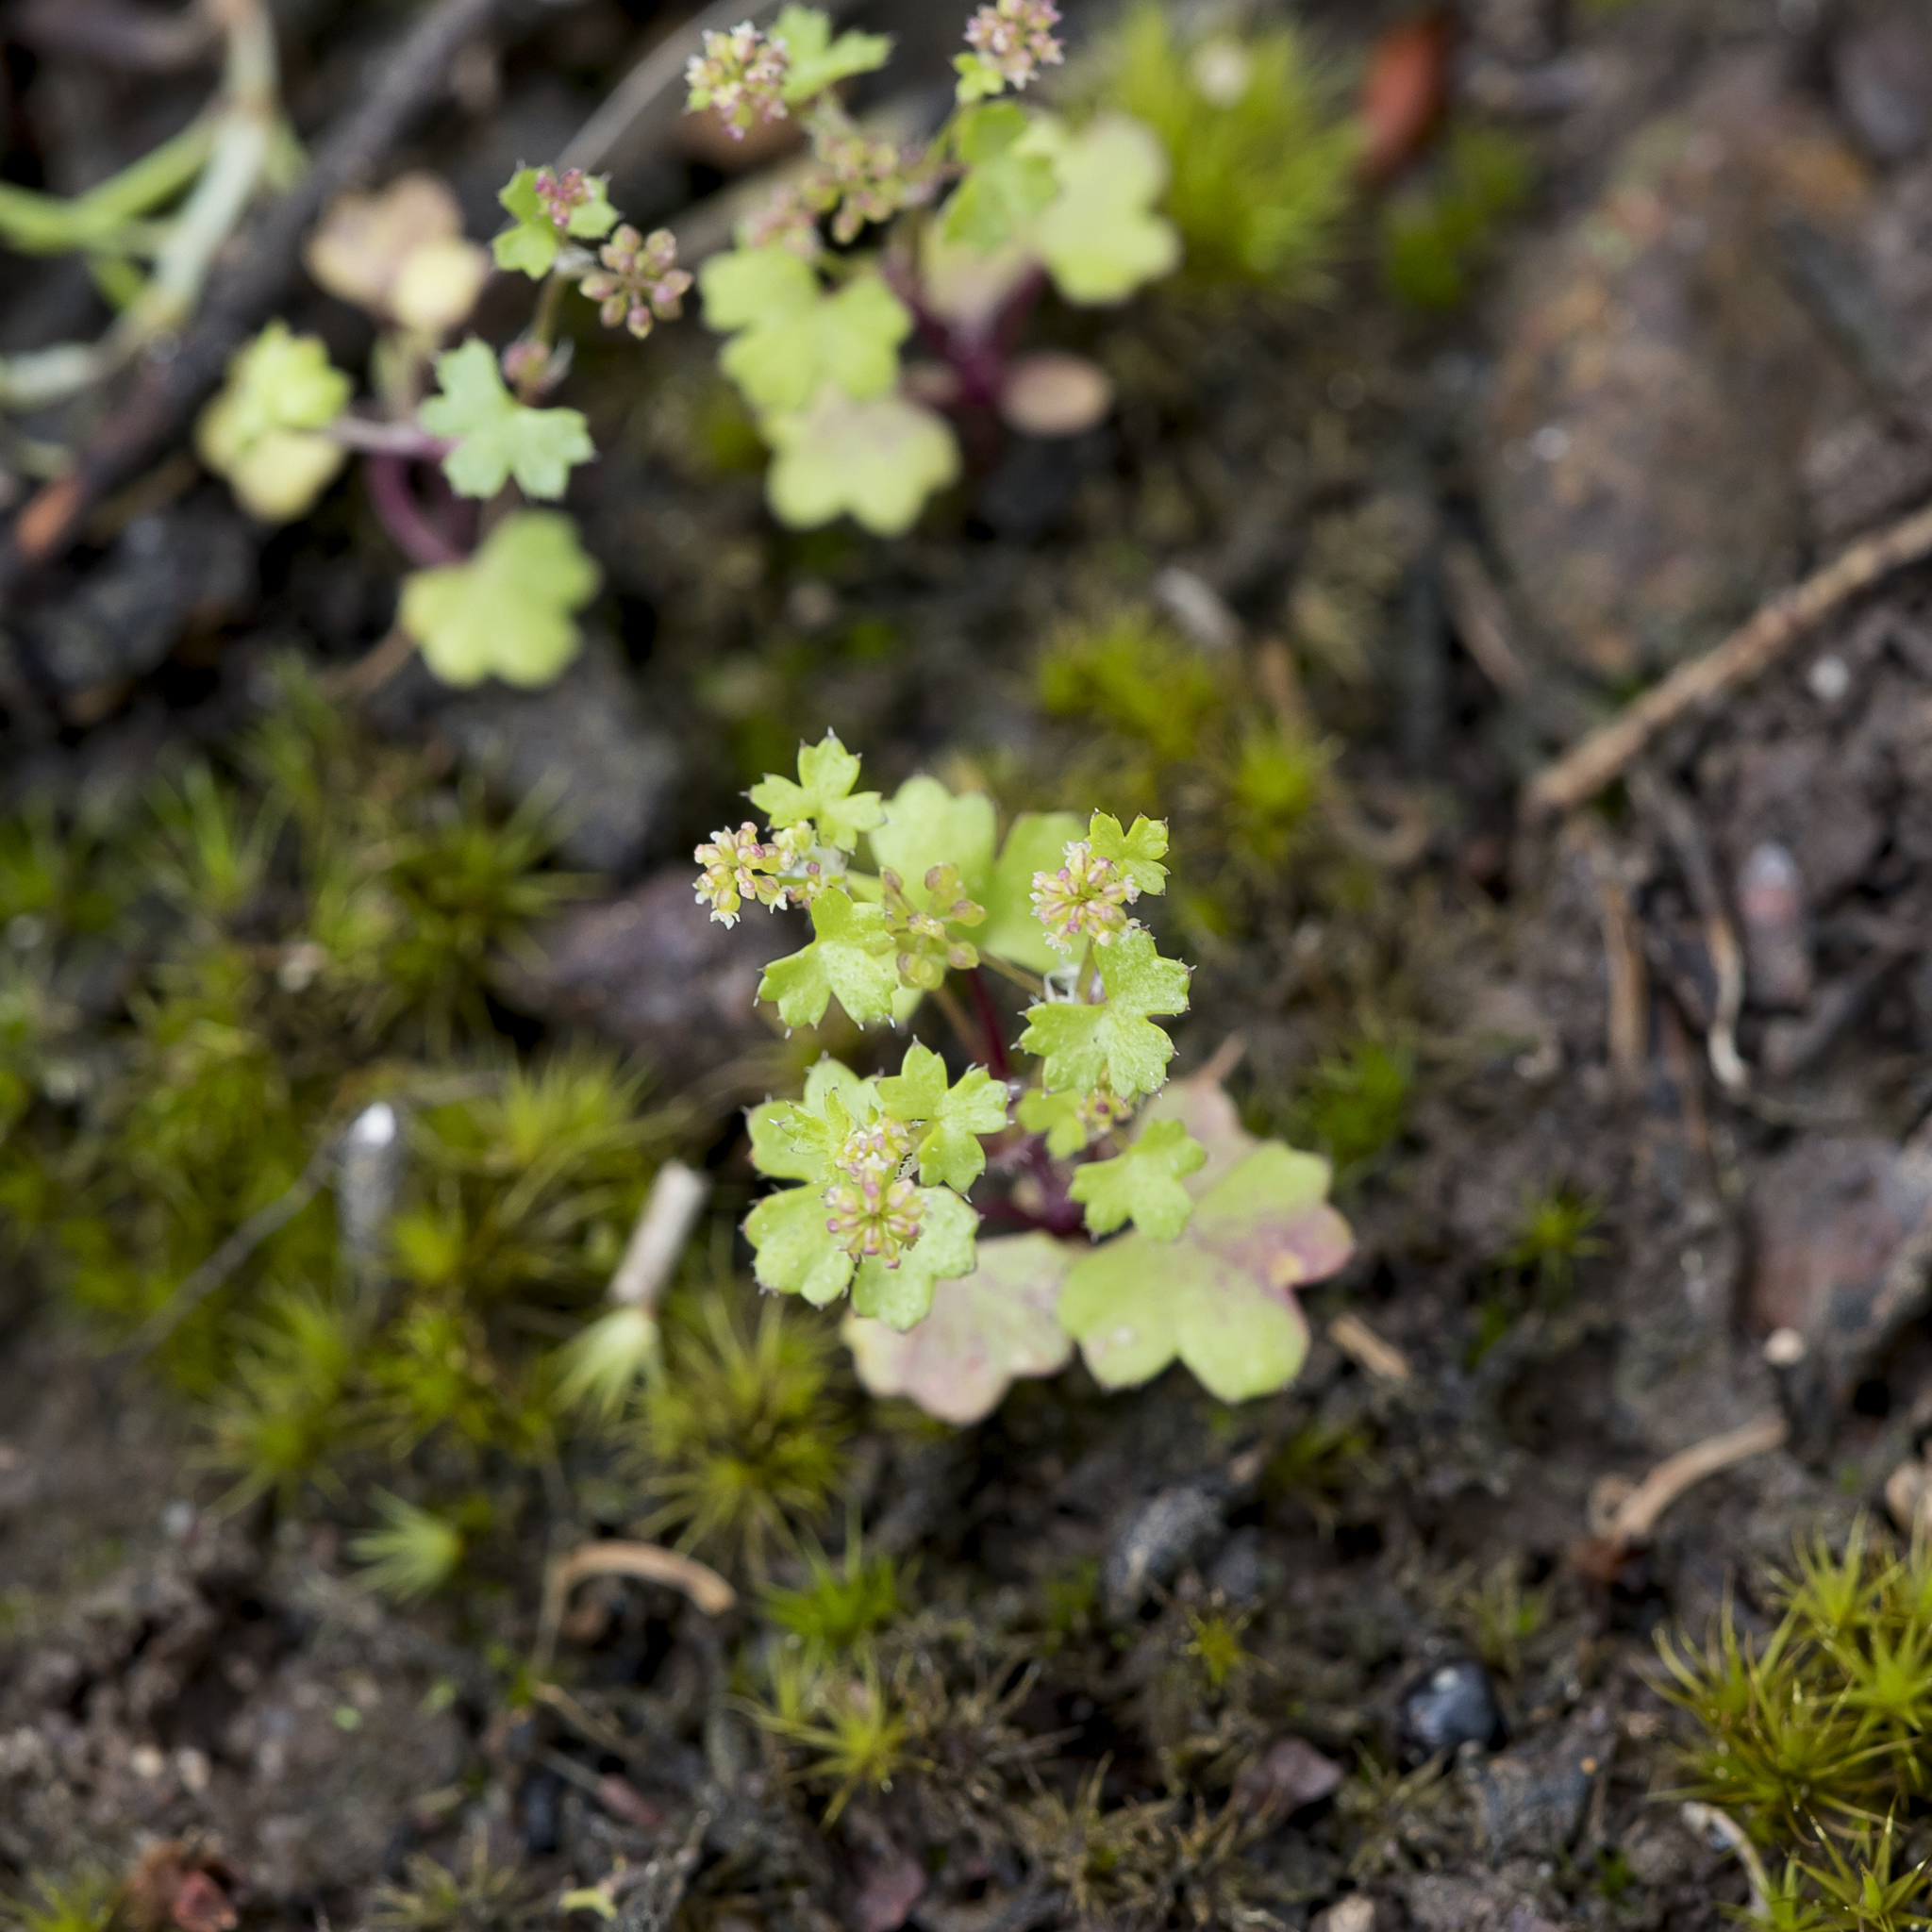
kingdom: Plantae
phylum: Tracheophyta
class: Magnoliopsida
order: Apiales
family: Araliaceae
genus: Hydrocotyle
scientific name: Hydrocotyle callicarpa
